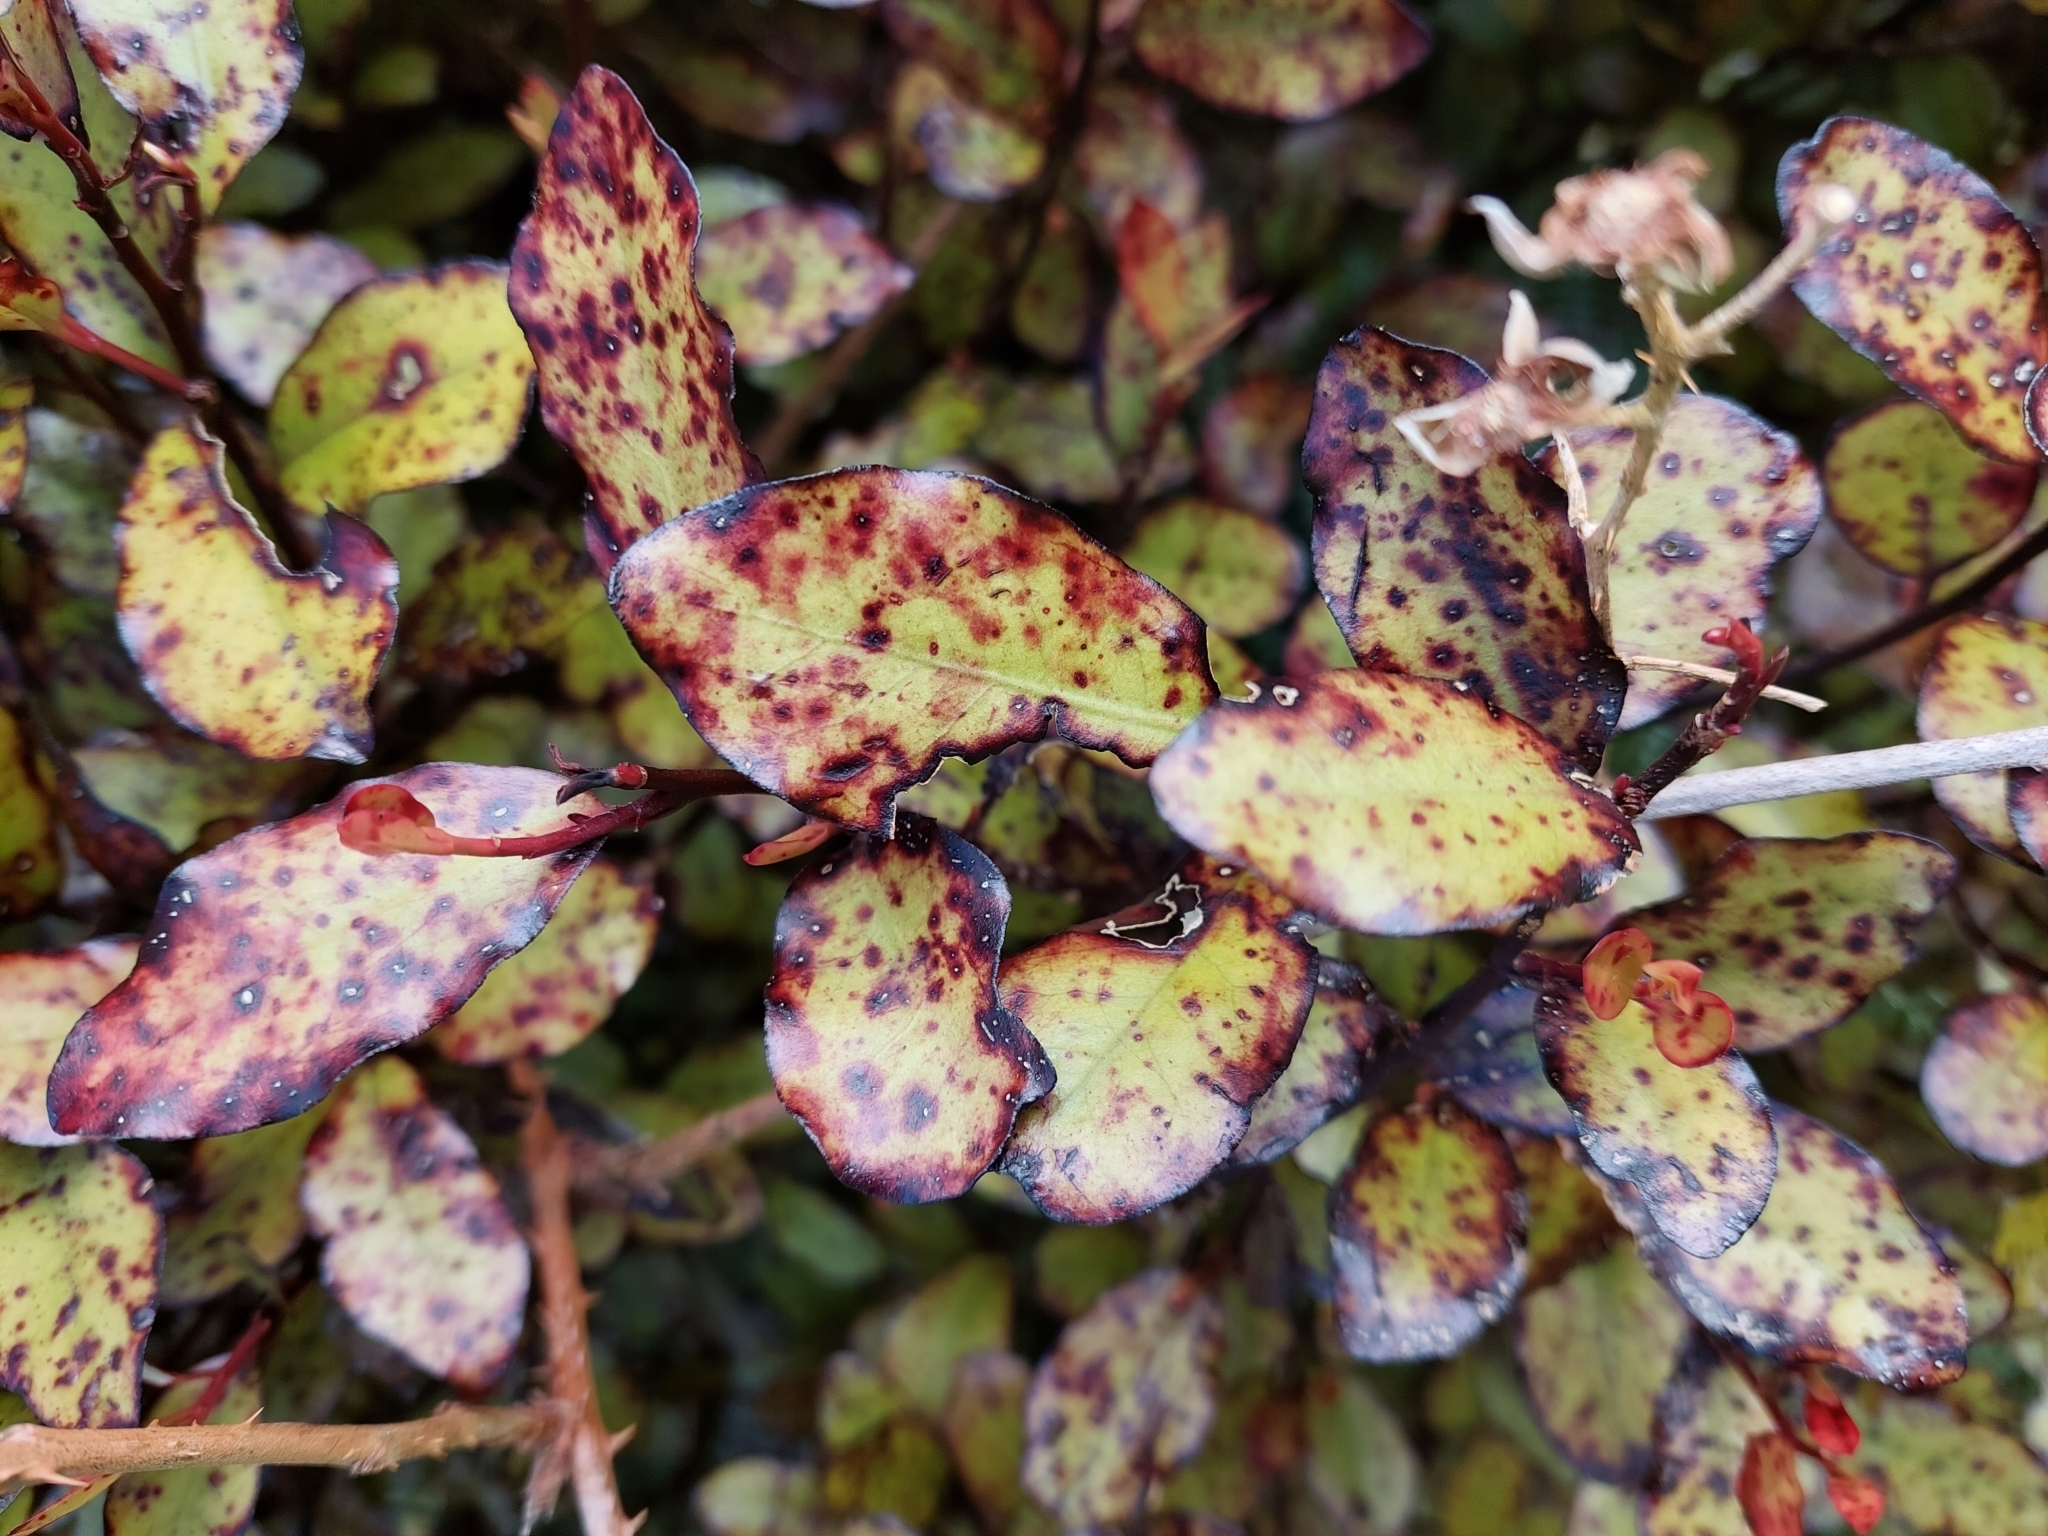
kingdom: Plantae
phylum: Tracheophyta
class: Magnoliopsida
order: Canellales
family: Winteraceae
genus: Pseudowintera
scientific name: Pseudowintera colorata
